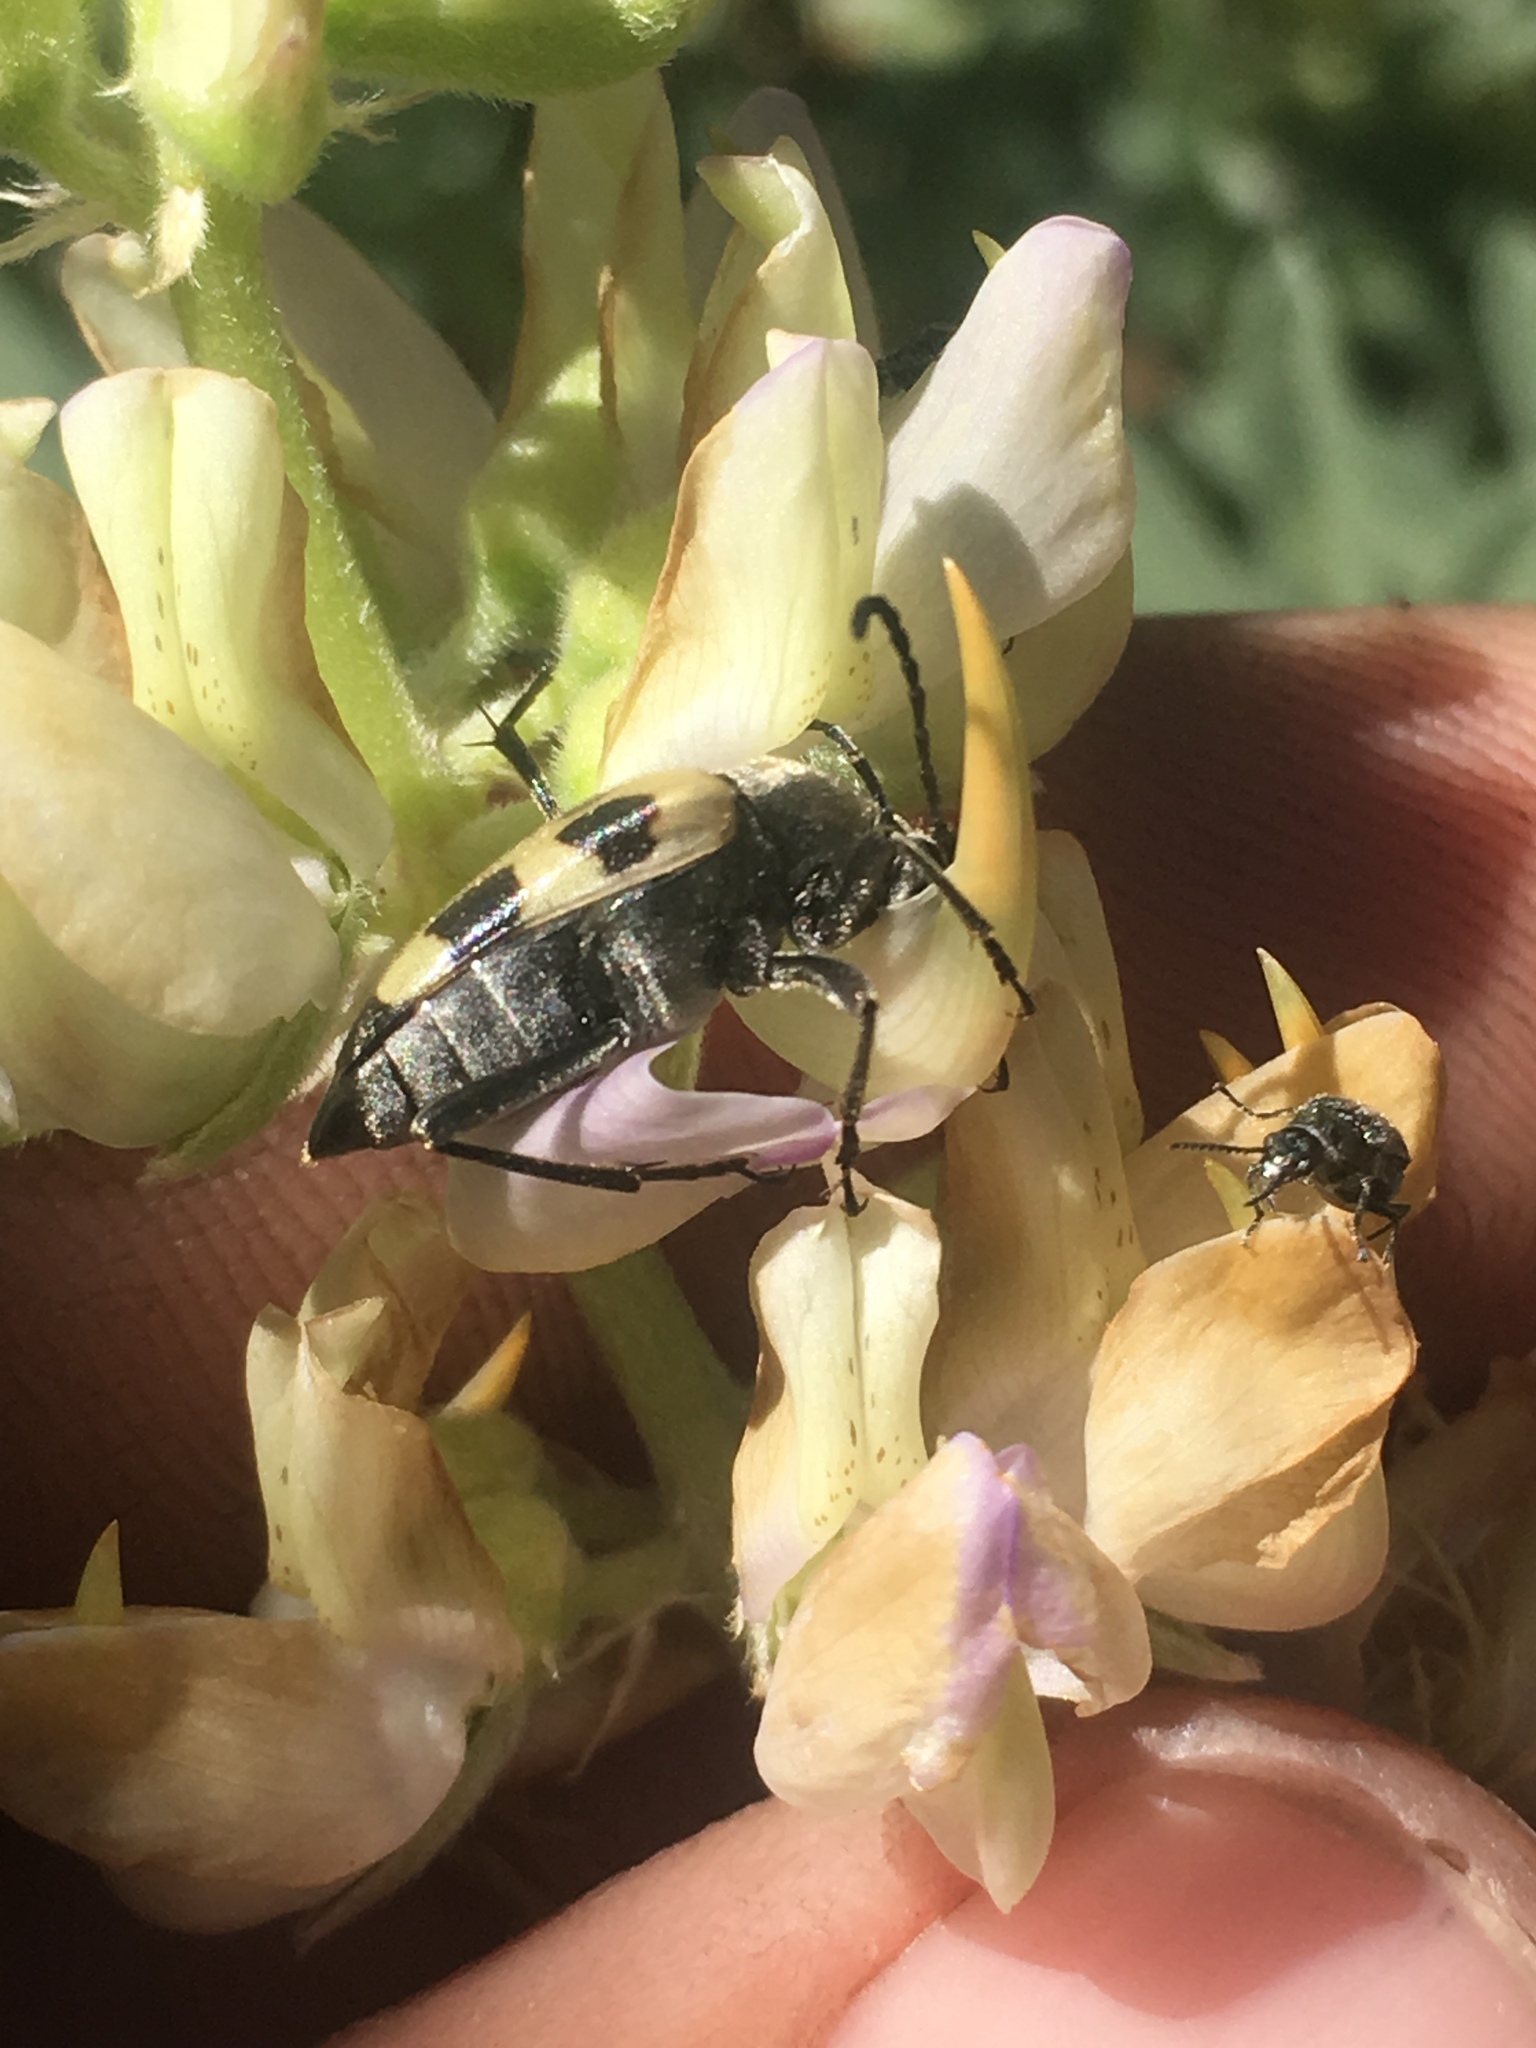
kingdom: Animalia
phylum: Arthropoda
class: Insecta
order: Coleoptera
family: Cerambycidae
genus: Judolia
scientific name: Judolia instabilis
